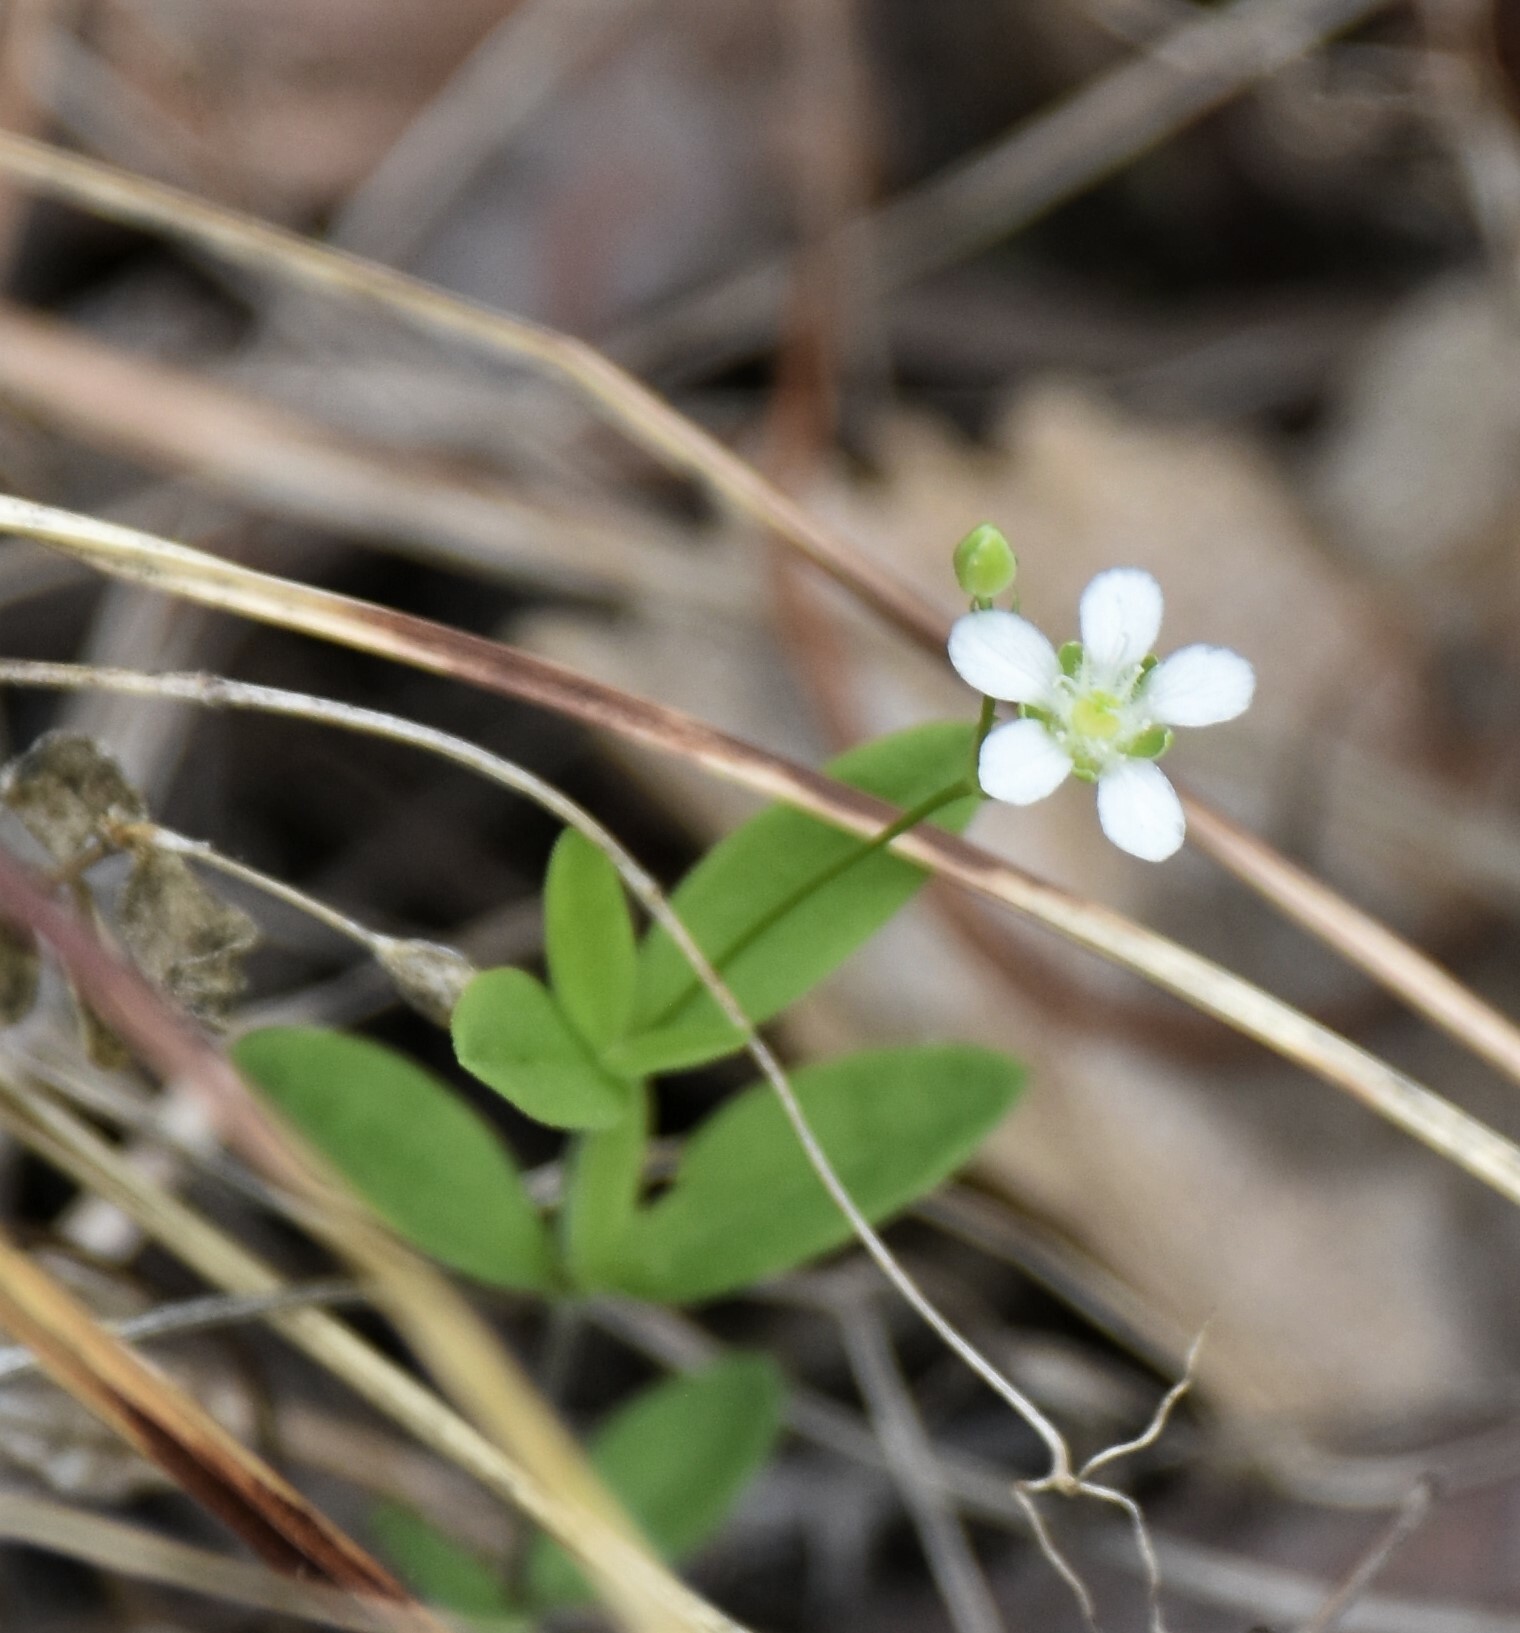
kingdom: Plantae
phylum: Tracheophyta
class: Magnoliopsida
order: Caryophyllales
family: Caryophyllaceae
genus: Moehringia
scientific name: Moehringia lateriflora
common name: Blunt-leaved sandwort
